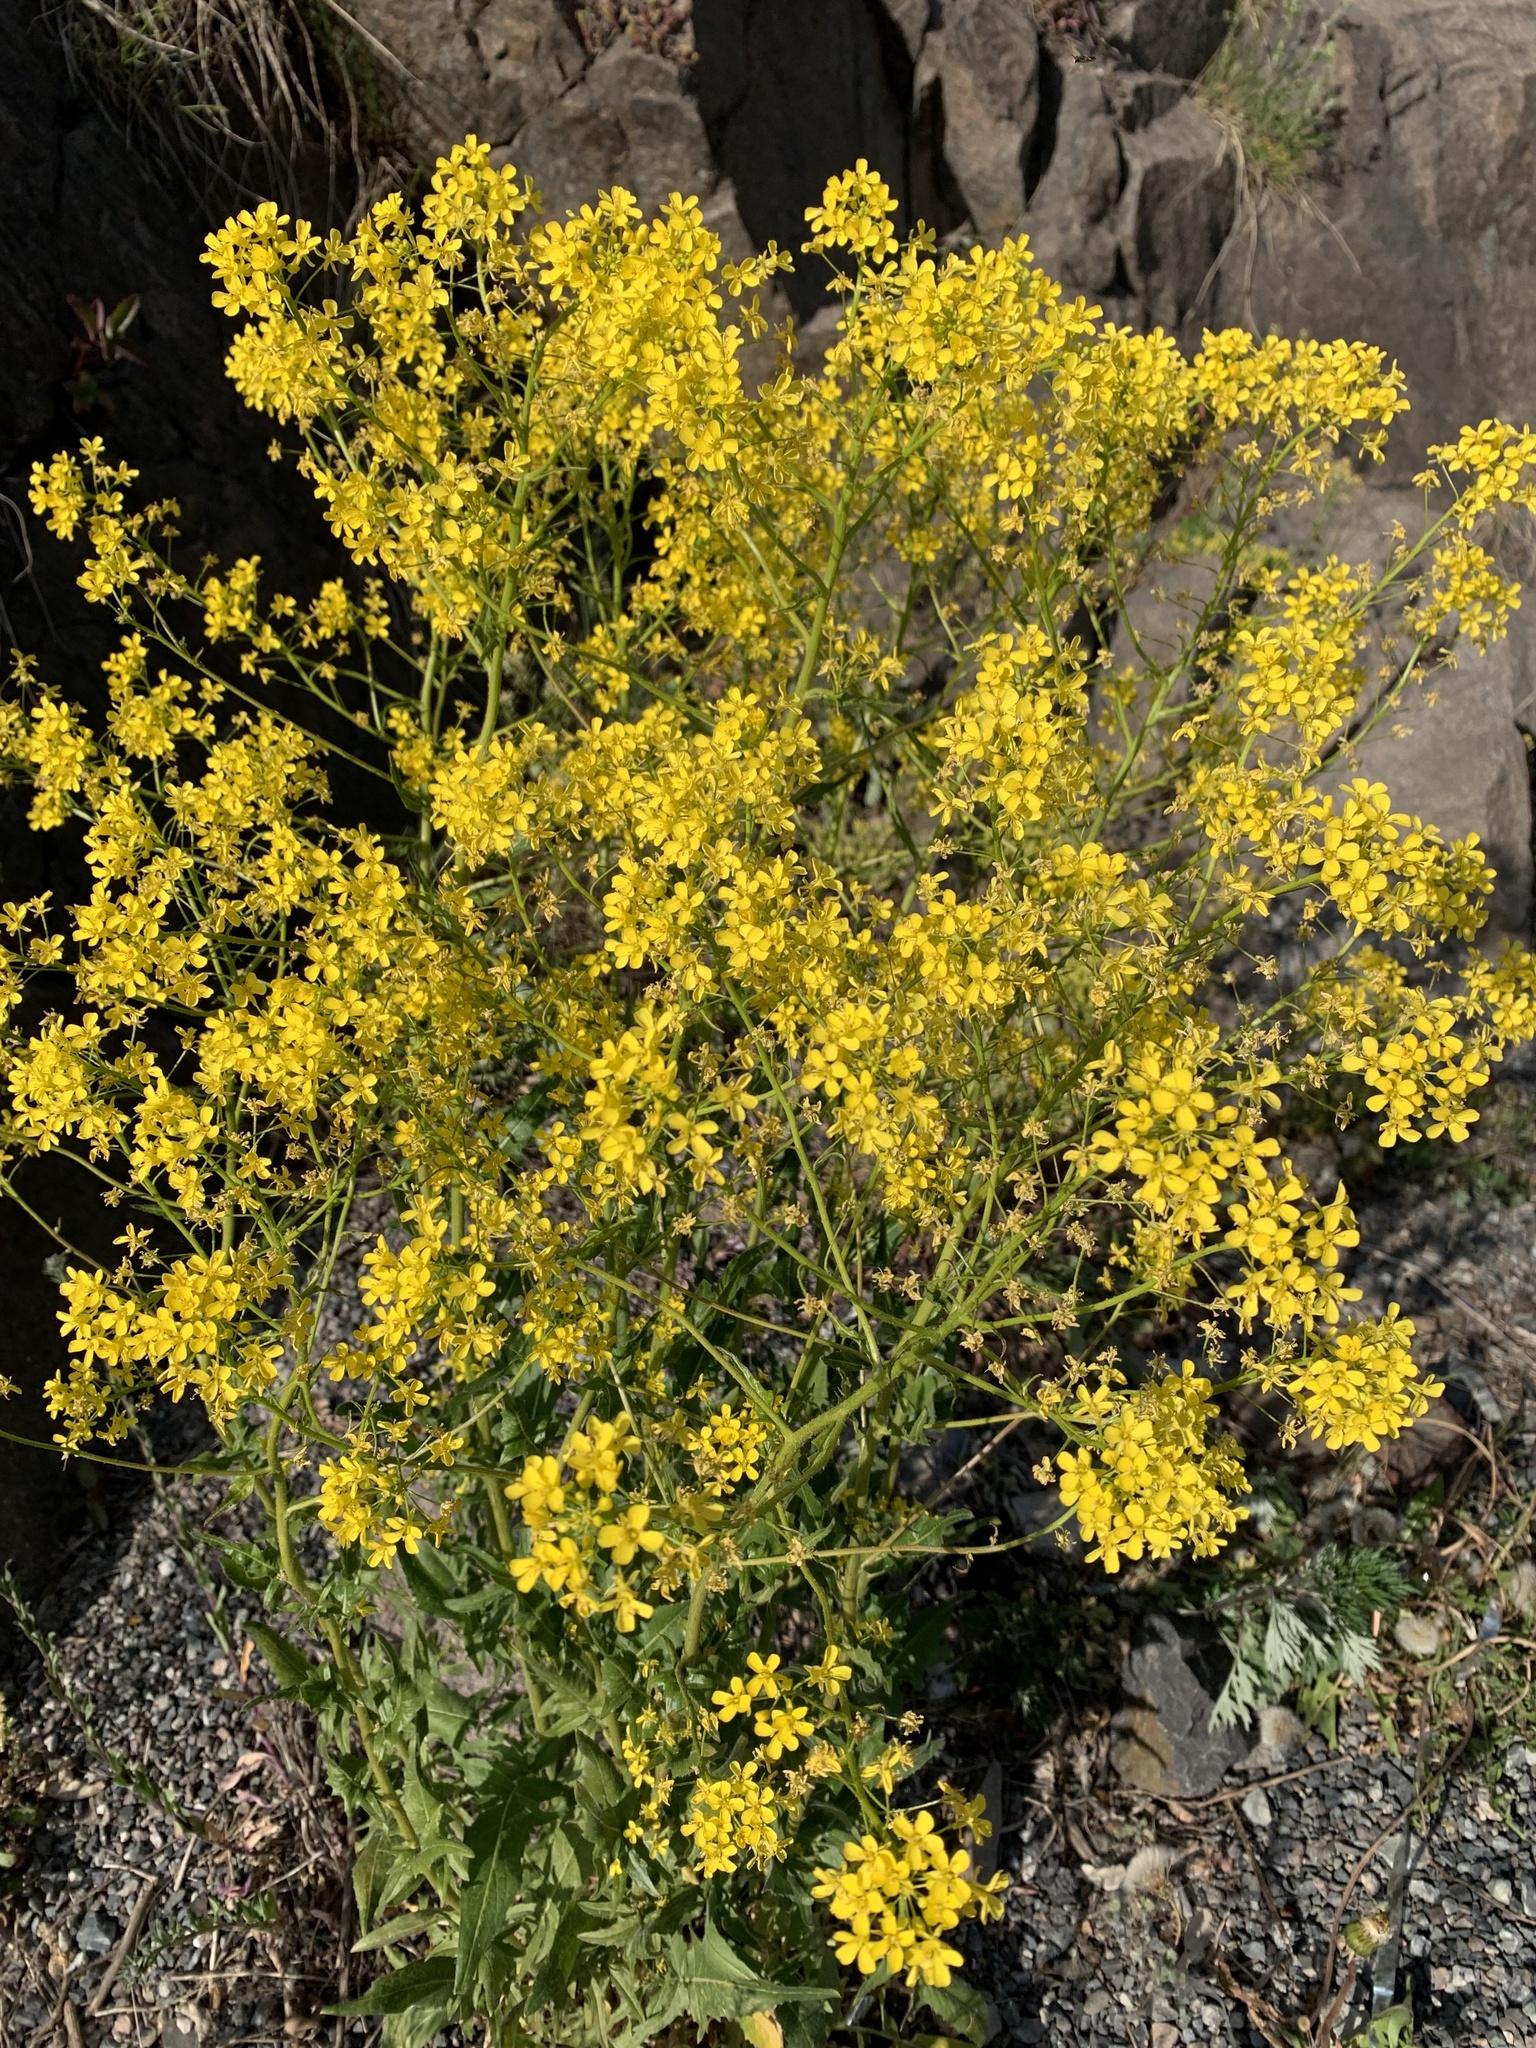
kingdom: Plantae
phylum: Tracheophyta
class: Magnoliopsida
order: Brassicales
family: Brassicaceae
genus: Bunias
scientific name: Bunias orientalis
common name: Warty-cabbage
